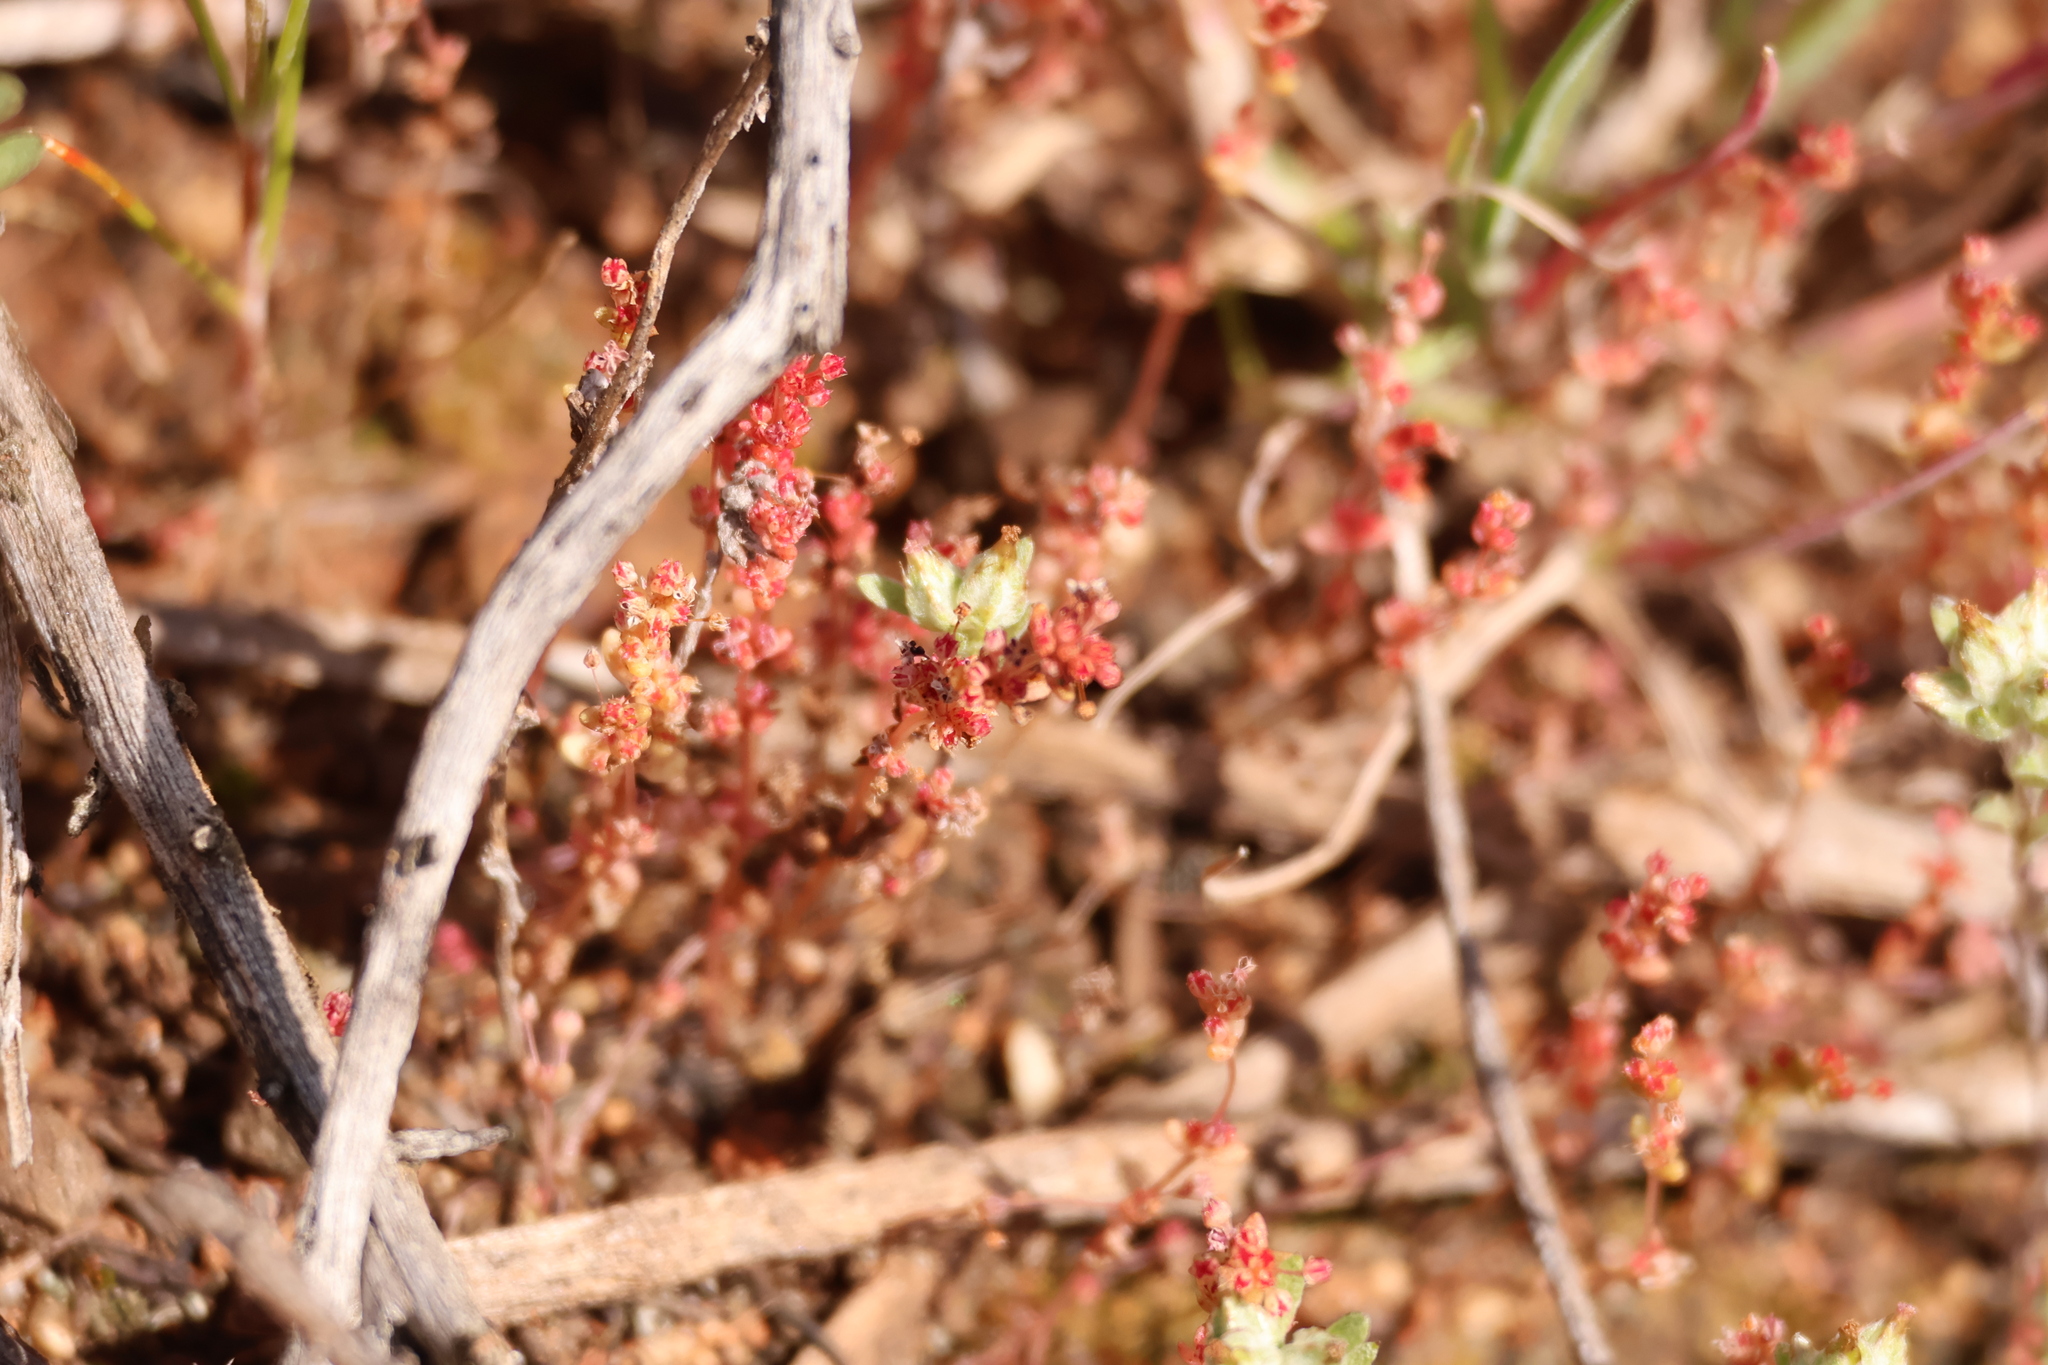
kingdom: Plantae
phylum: Tracheophyta
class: Magnoliopsida
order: Saxifragales
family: Crassulaceae
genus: Crassula
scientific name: Crassula connata
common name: Erect pygmyweed
